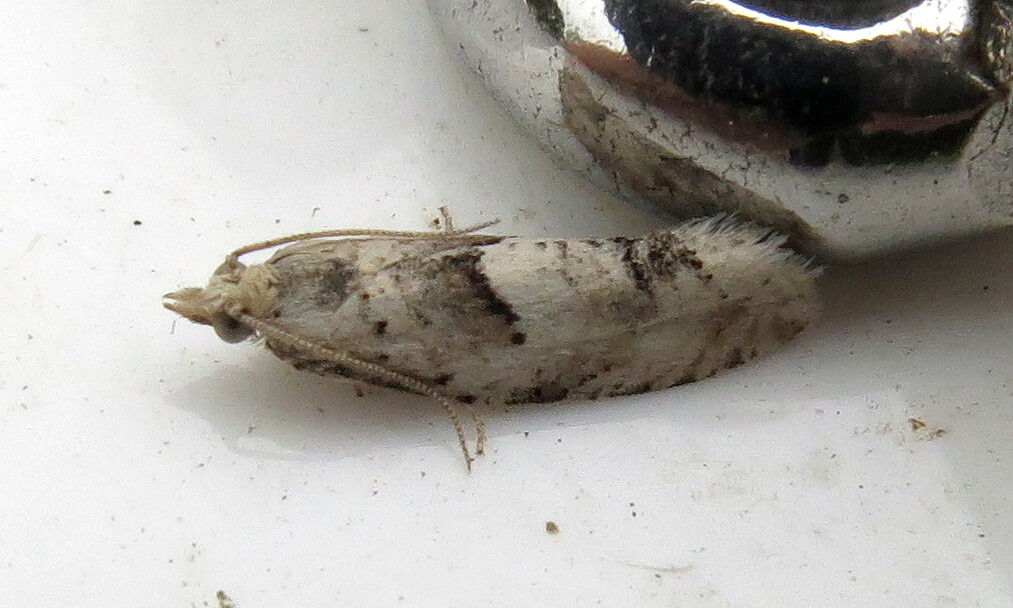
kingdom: Animalia
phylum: Arthropoda
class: Insecta
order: Lepidoptera
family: Tortricidae
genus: Epinotia
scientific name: Epinotia bilunana
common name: Crescent bell
